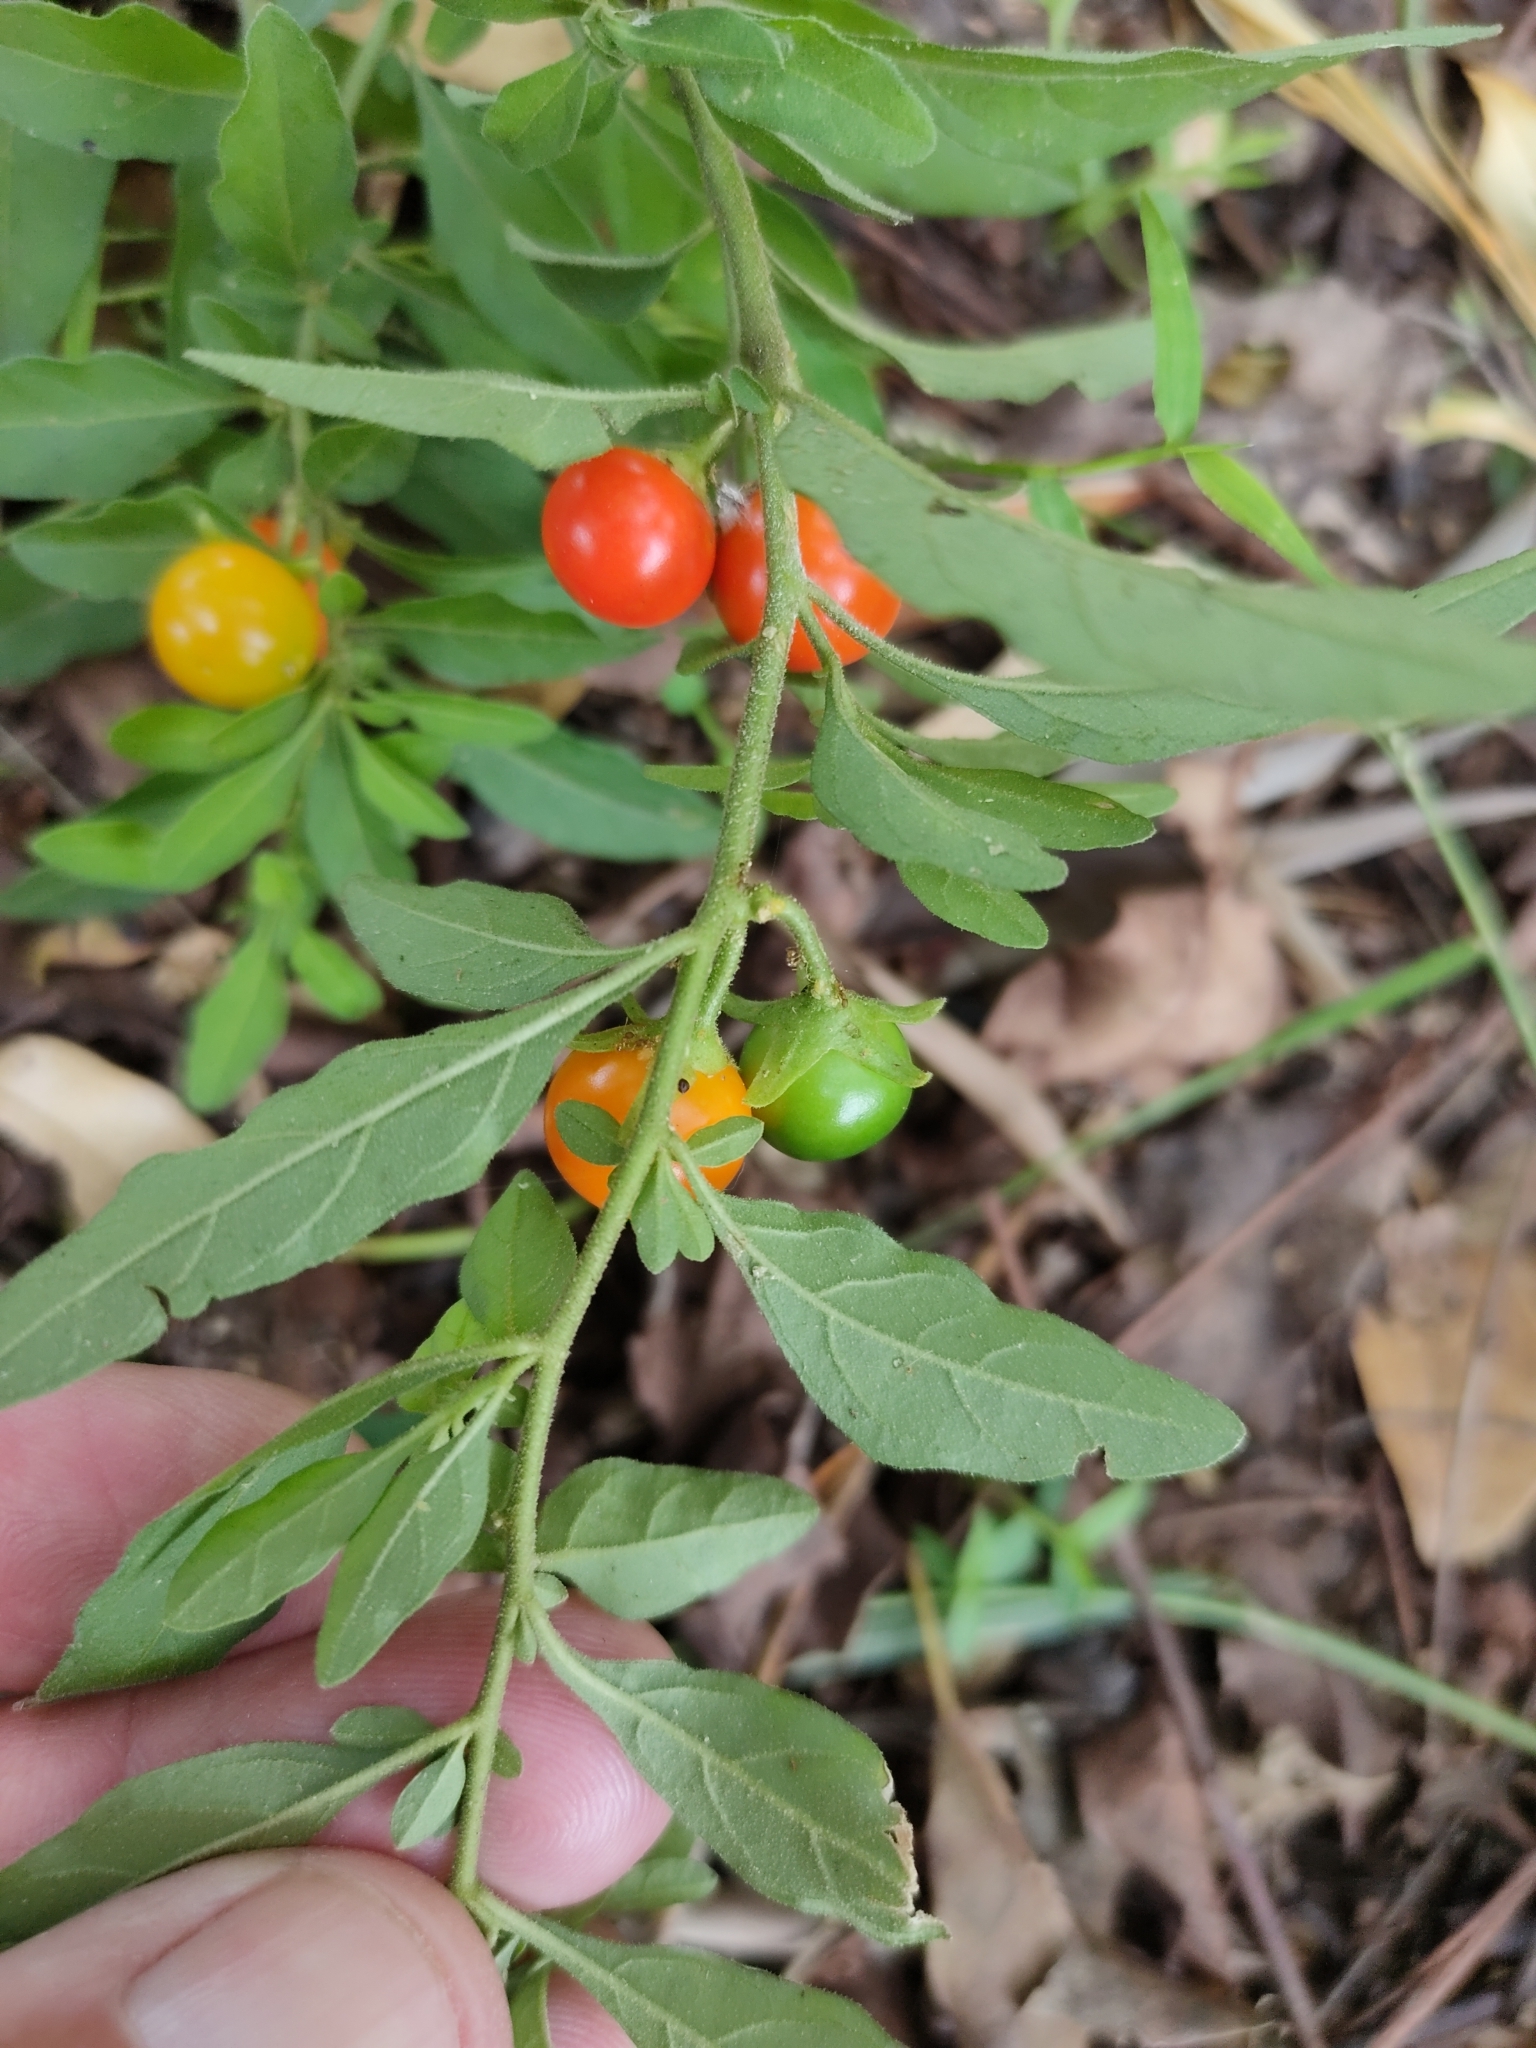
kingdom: Plantae
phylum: Tracheophyta
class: Magnoliopsida
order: Solanales
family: Solanaceae
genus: Solanum
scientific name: Solanum pseudocapsicum
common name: Jerusalem cherry
